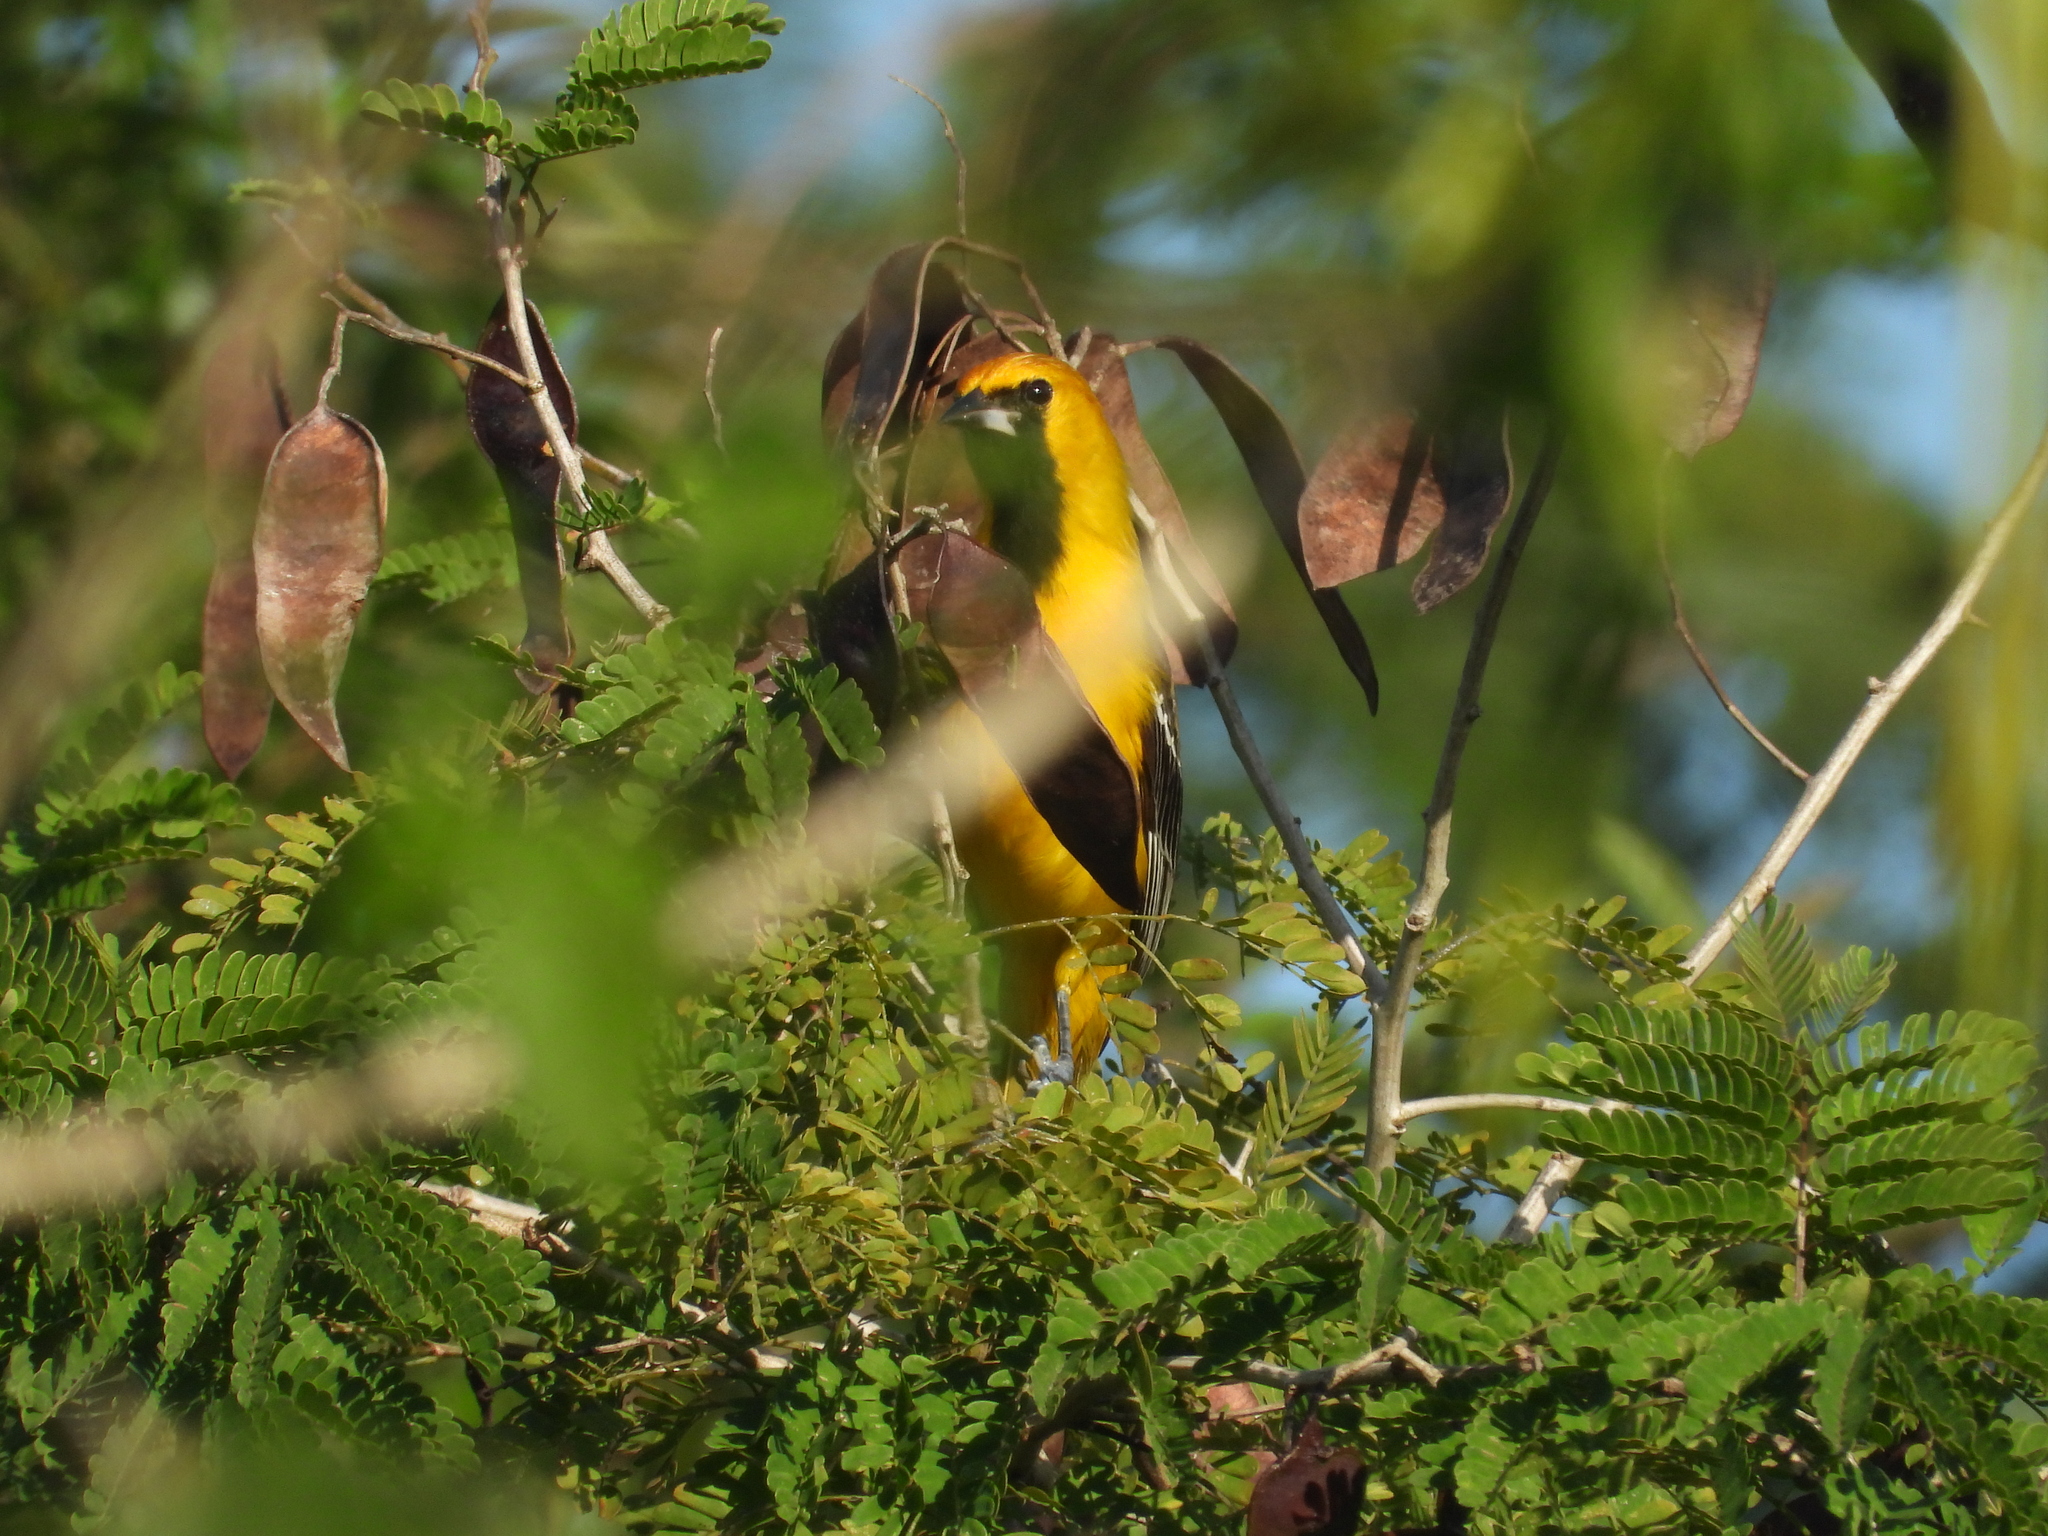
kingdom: Animalia
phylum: Chordata
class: Aves
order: Passeriformes
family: Icteridae
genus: Icterus
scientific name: Icterus auratus
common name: Orange oriole
